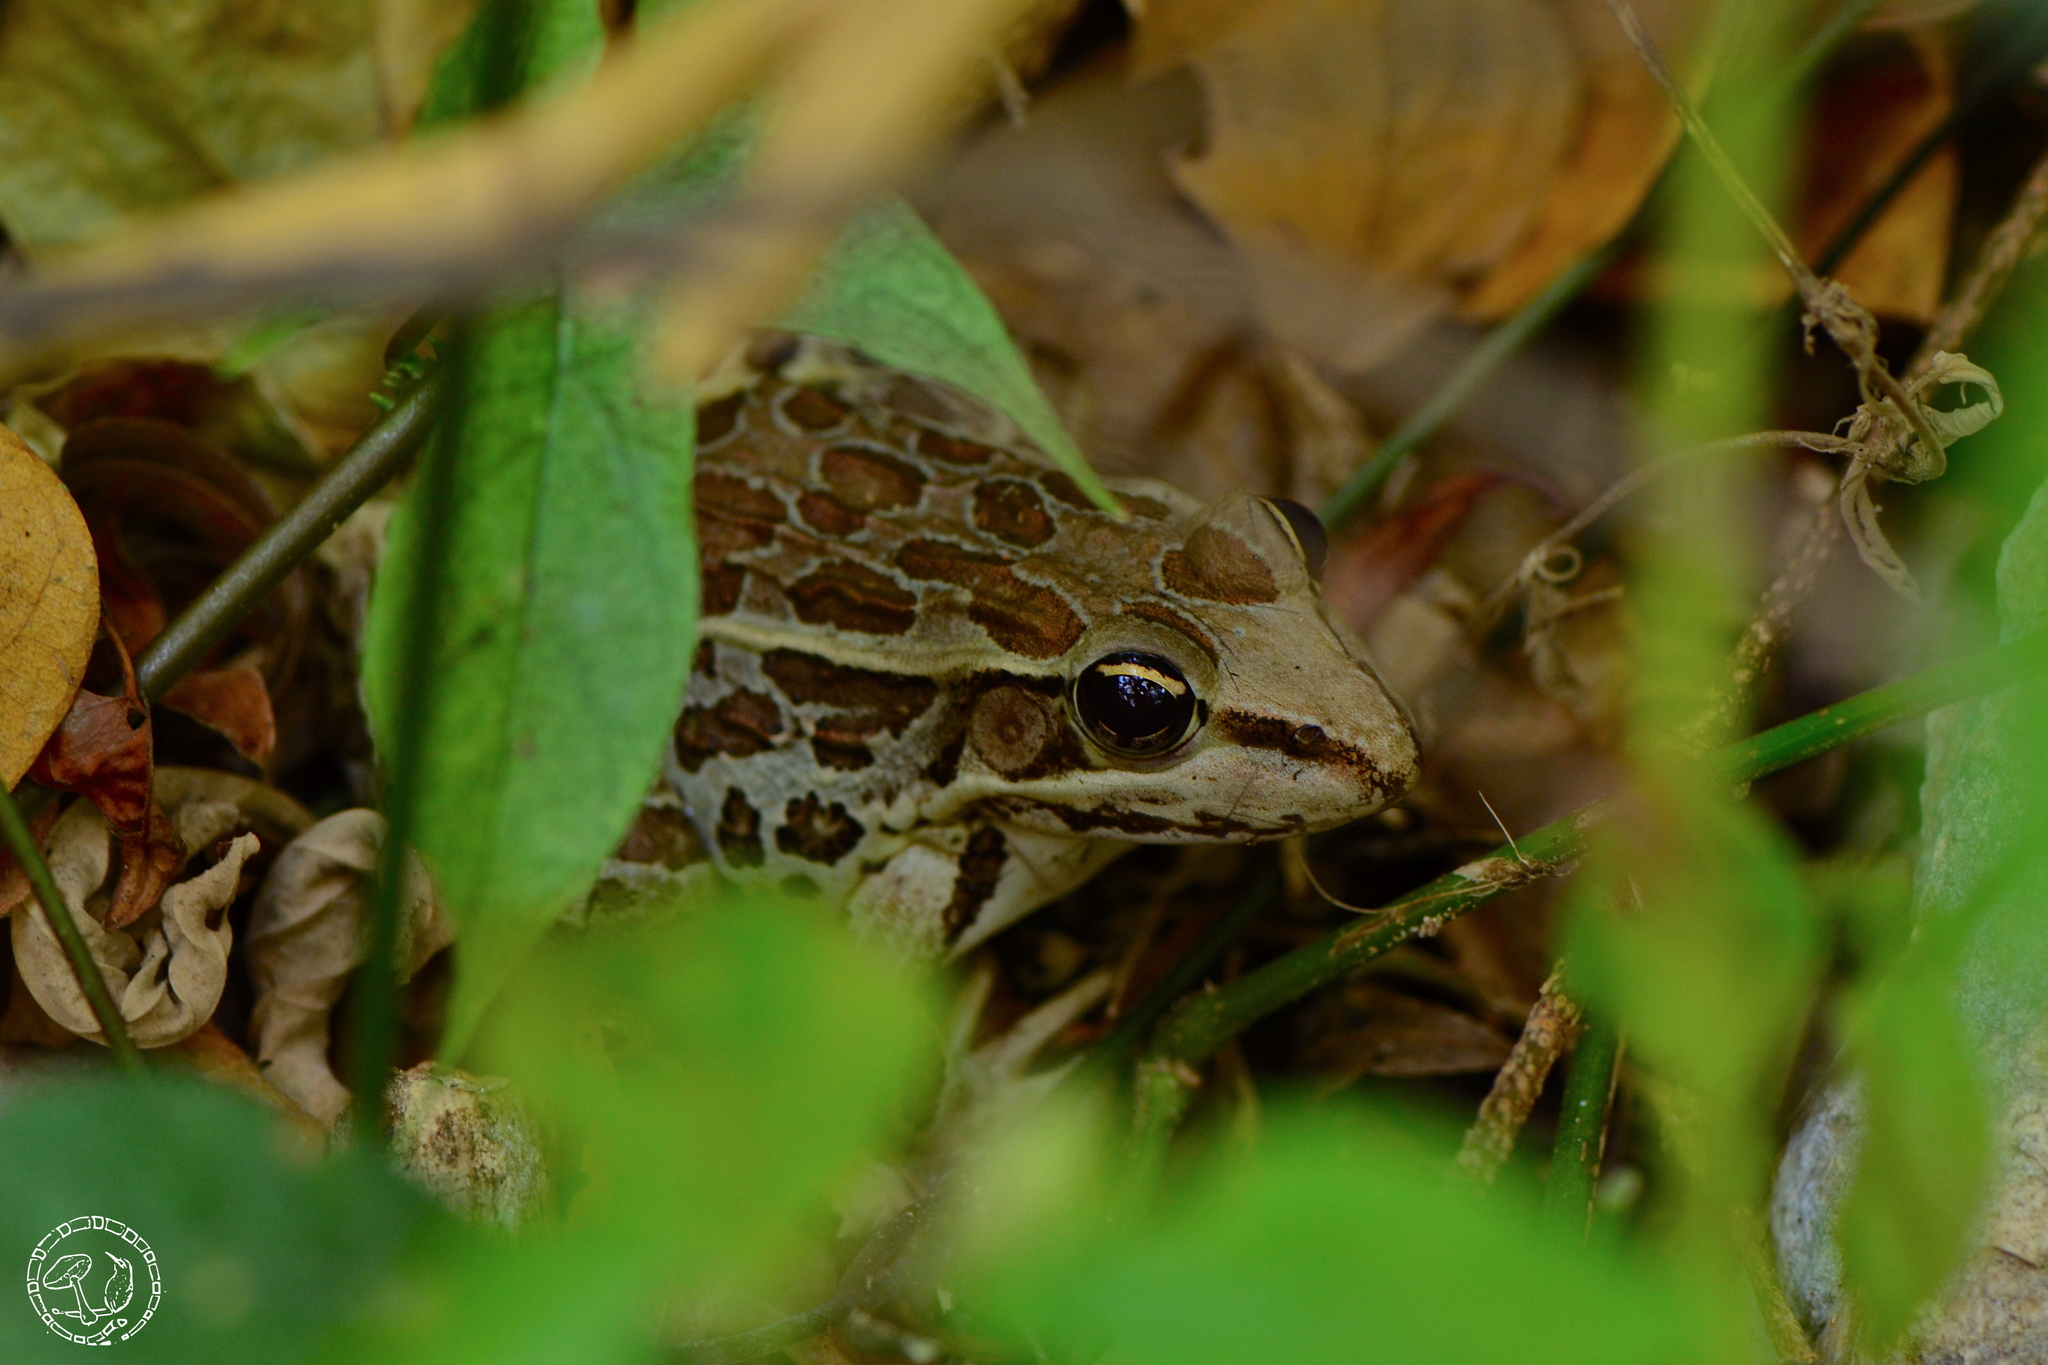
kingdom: Animalia
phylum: Chordata
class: Amphibia
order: Anura
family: Ranidae
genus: Lithobates
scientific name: Lithobates brownorum
